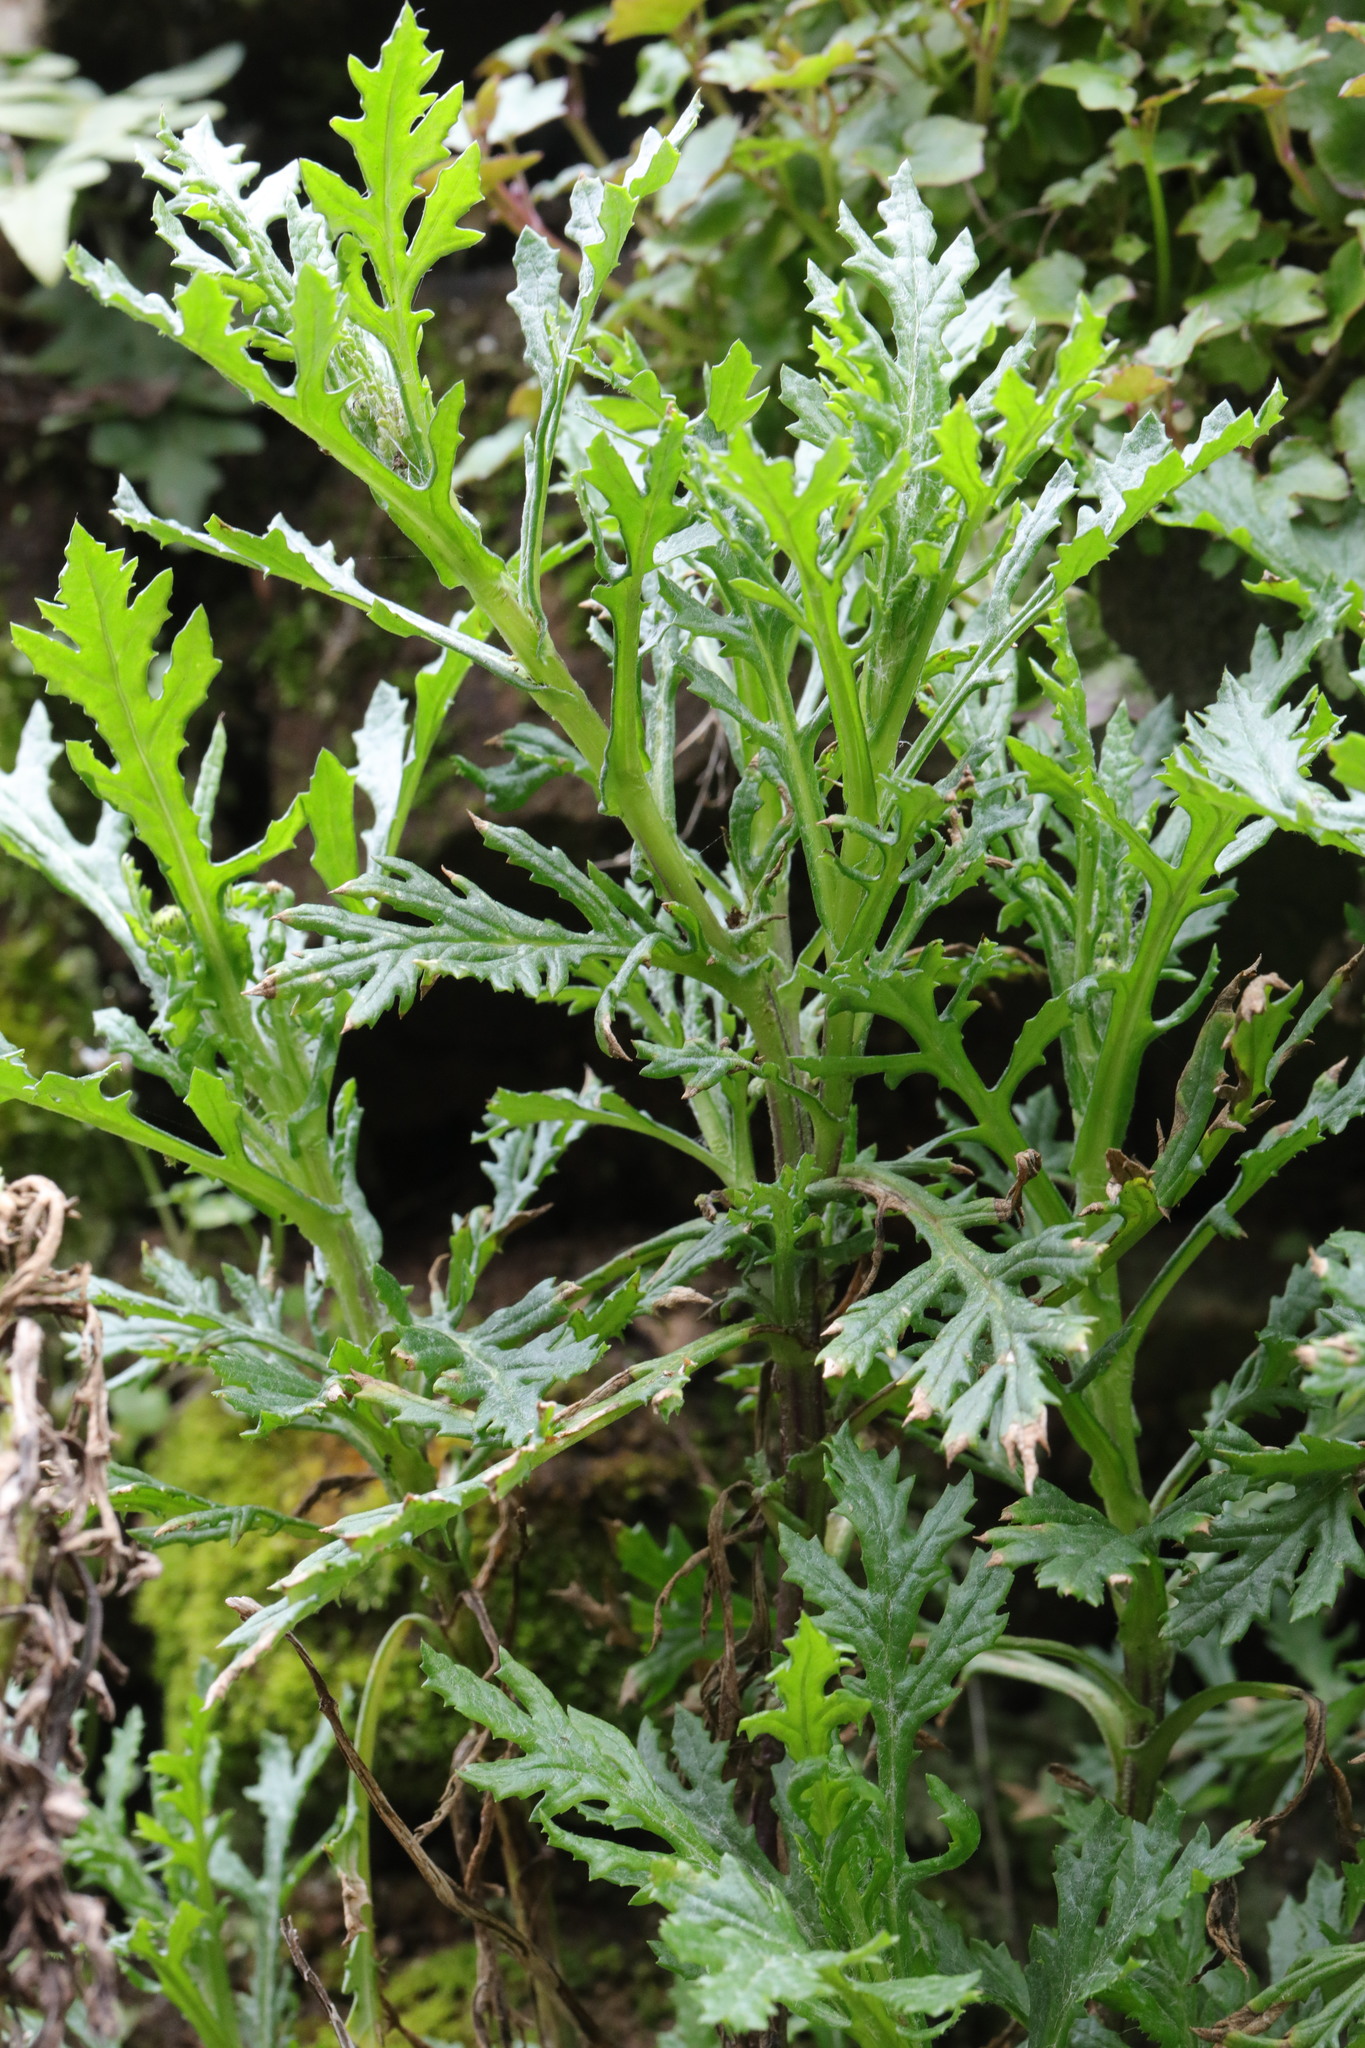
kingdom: Plantae
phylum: Tracheophyta
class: Magnoliopsida
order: Asterales
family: Asteraceae
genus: Senecio
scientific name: Senecio squalidus
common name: Oxford ragwort
